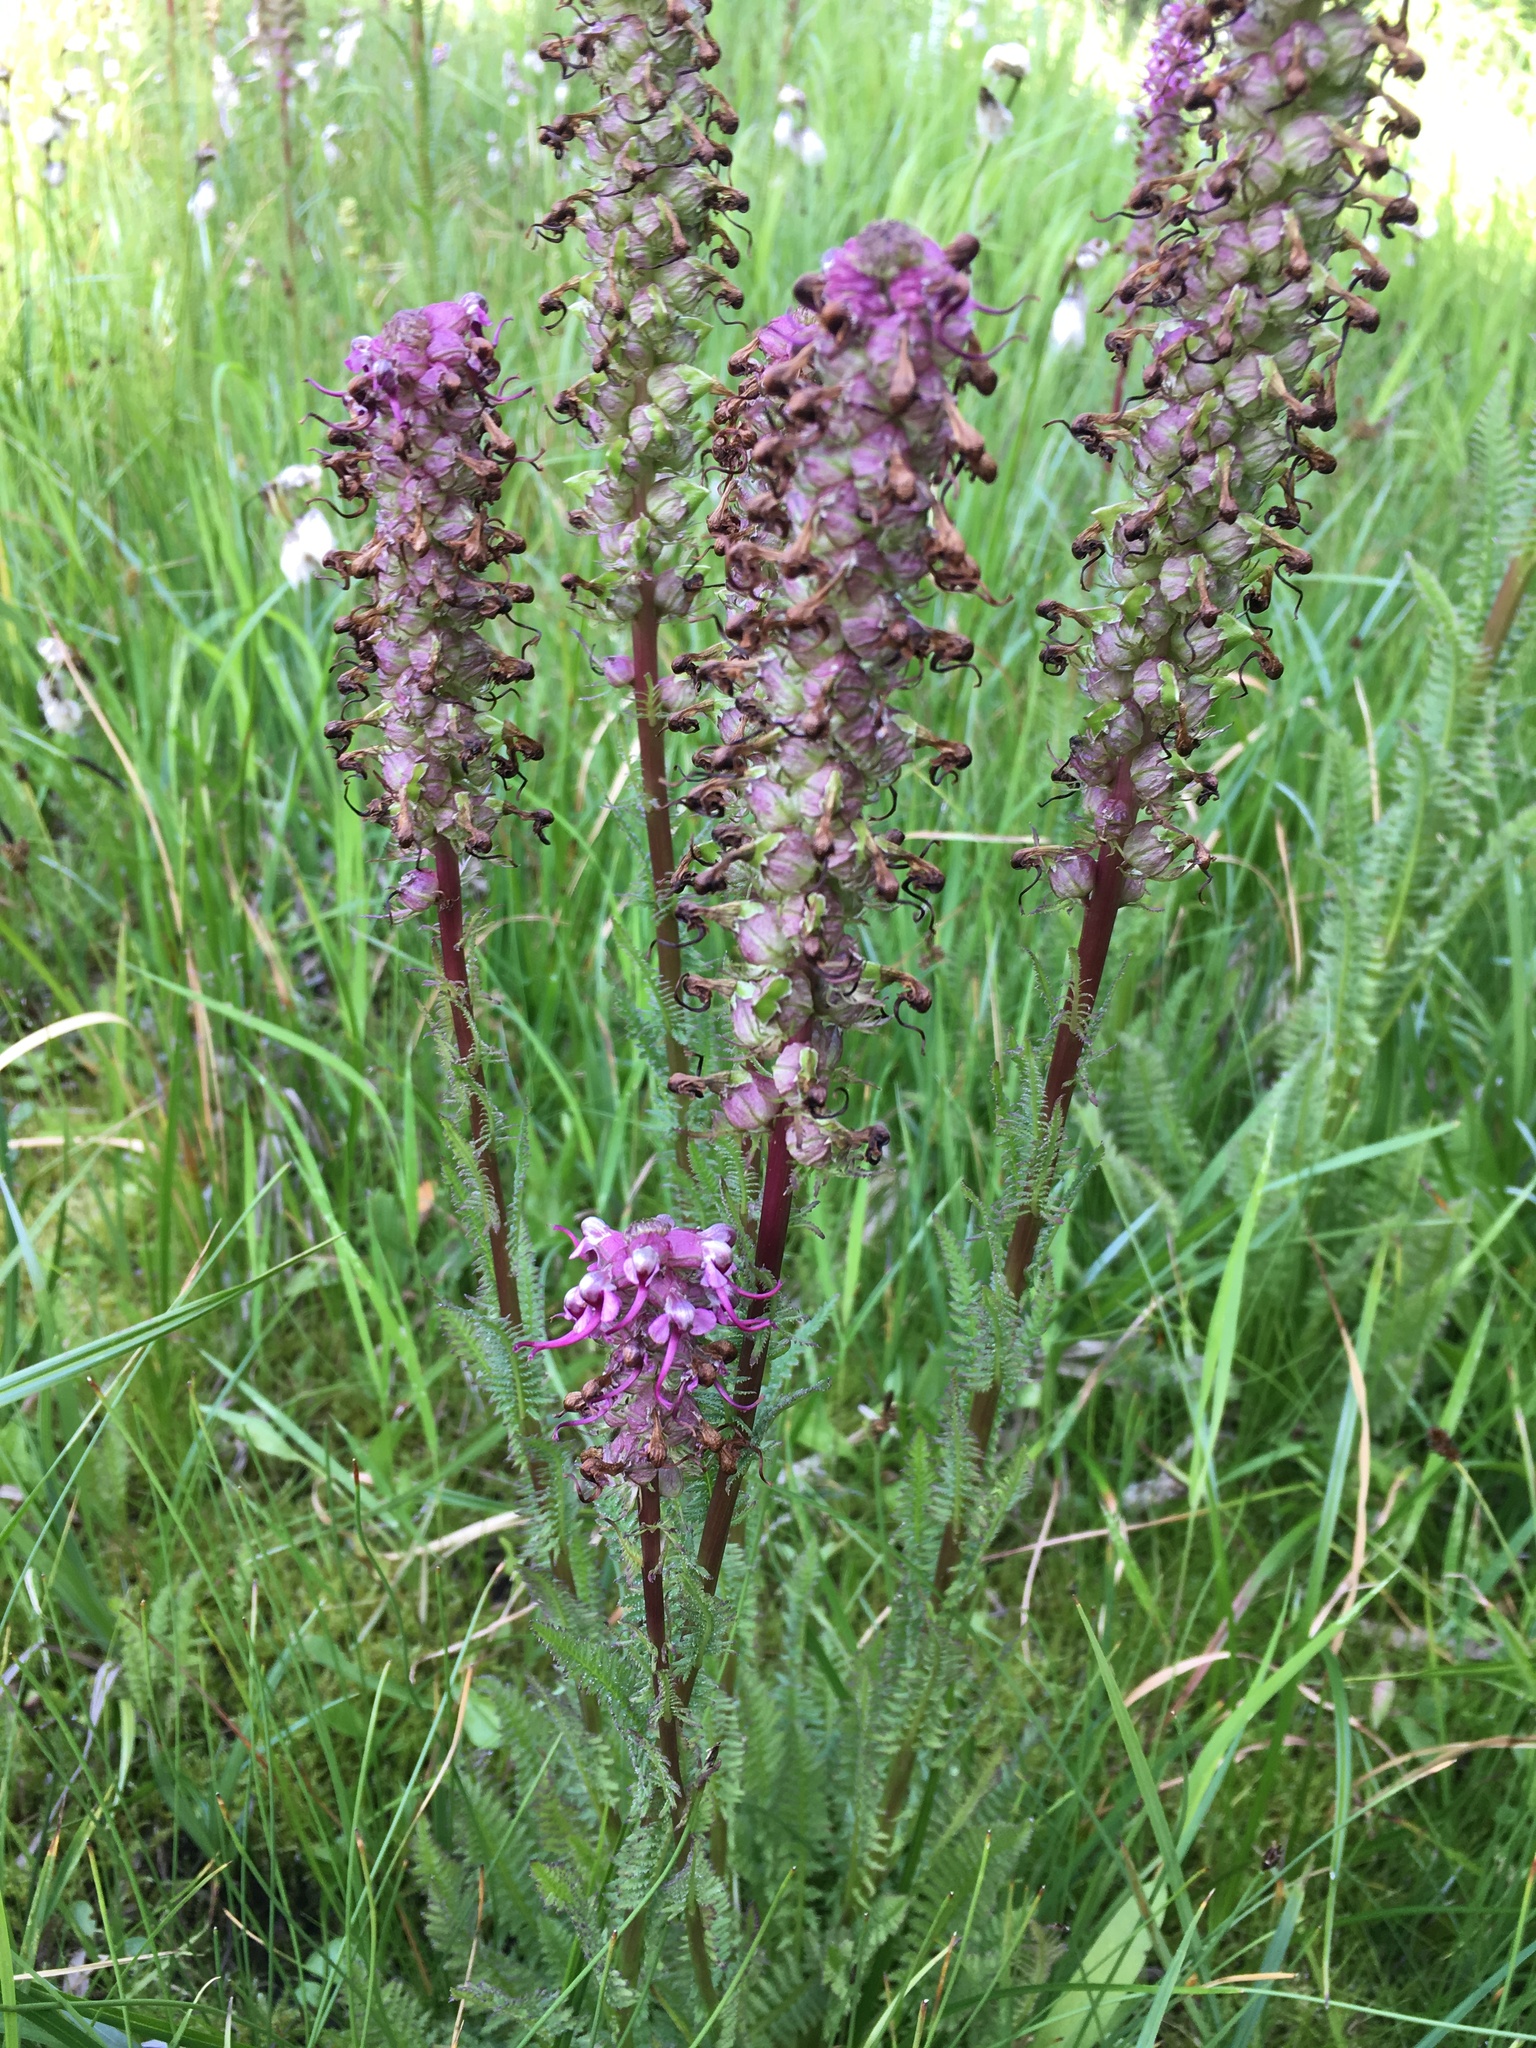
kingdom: Plantae
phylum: Tracheophyta
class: Magnoliopsida
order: Lamiales
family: Orobanchaceae
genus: Pedicularis
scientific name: Pedicularis groenlandica
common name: Elephant's-head
